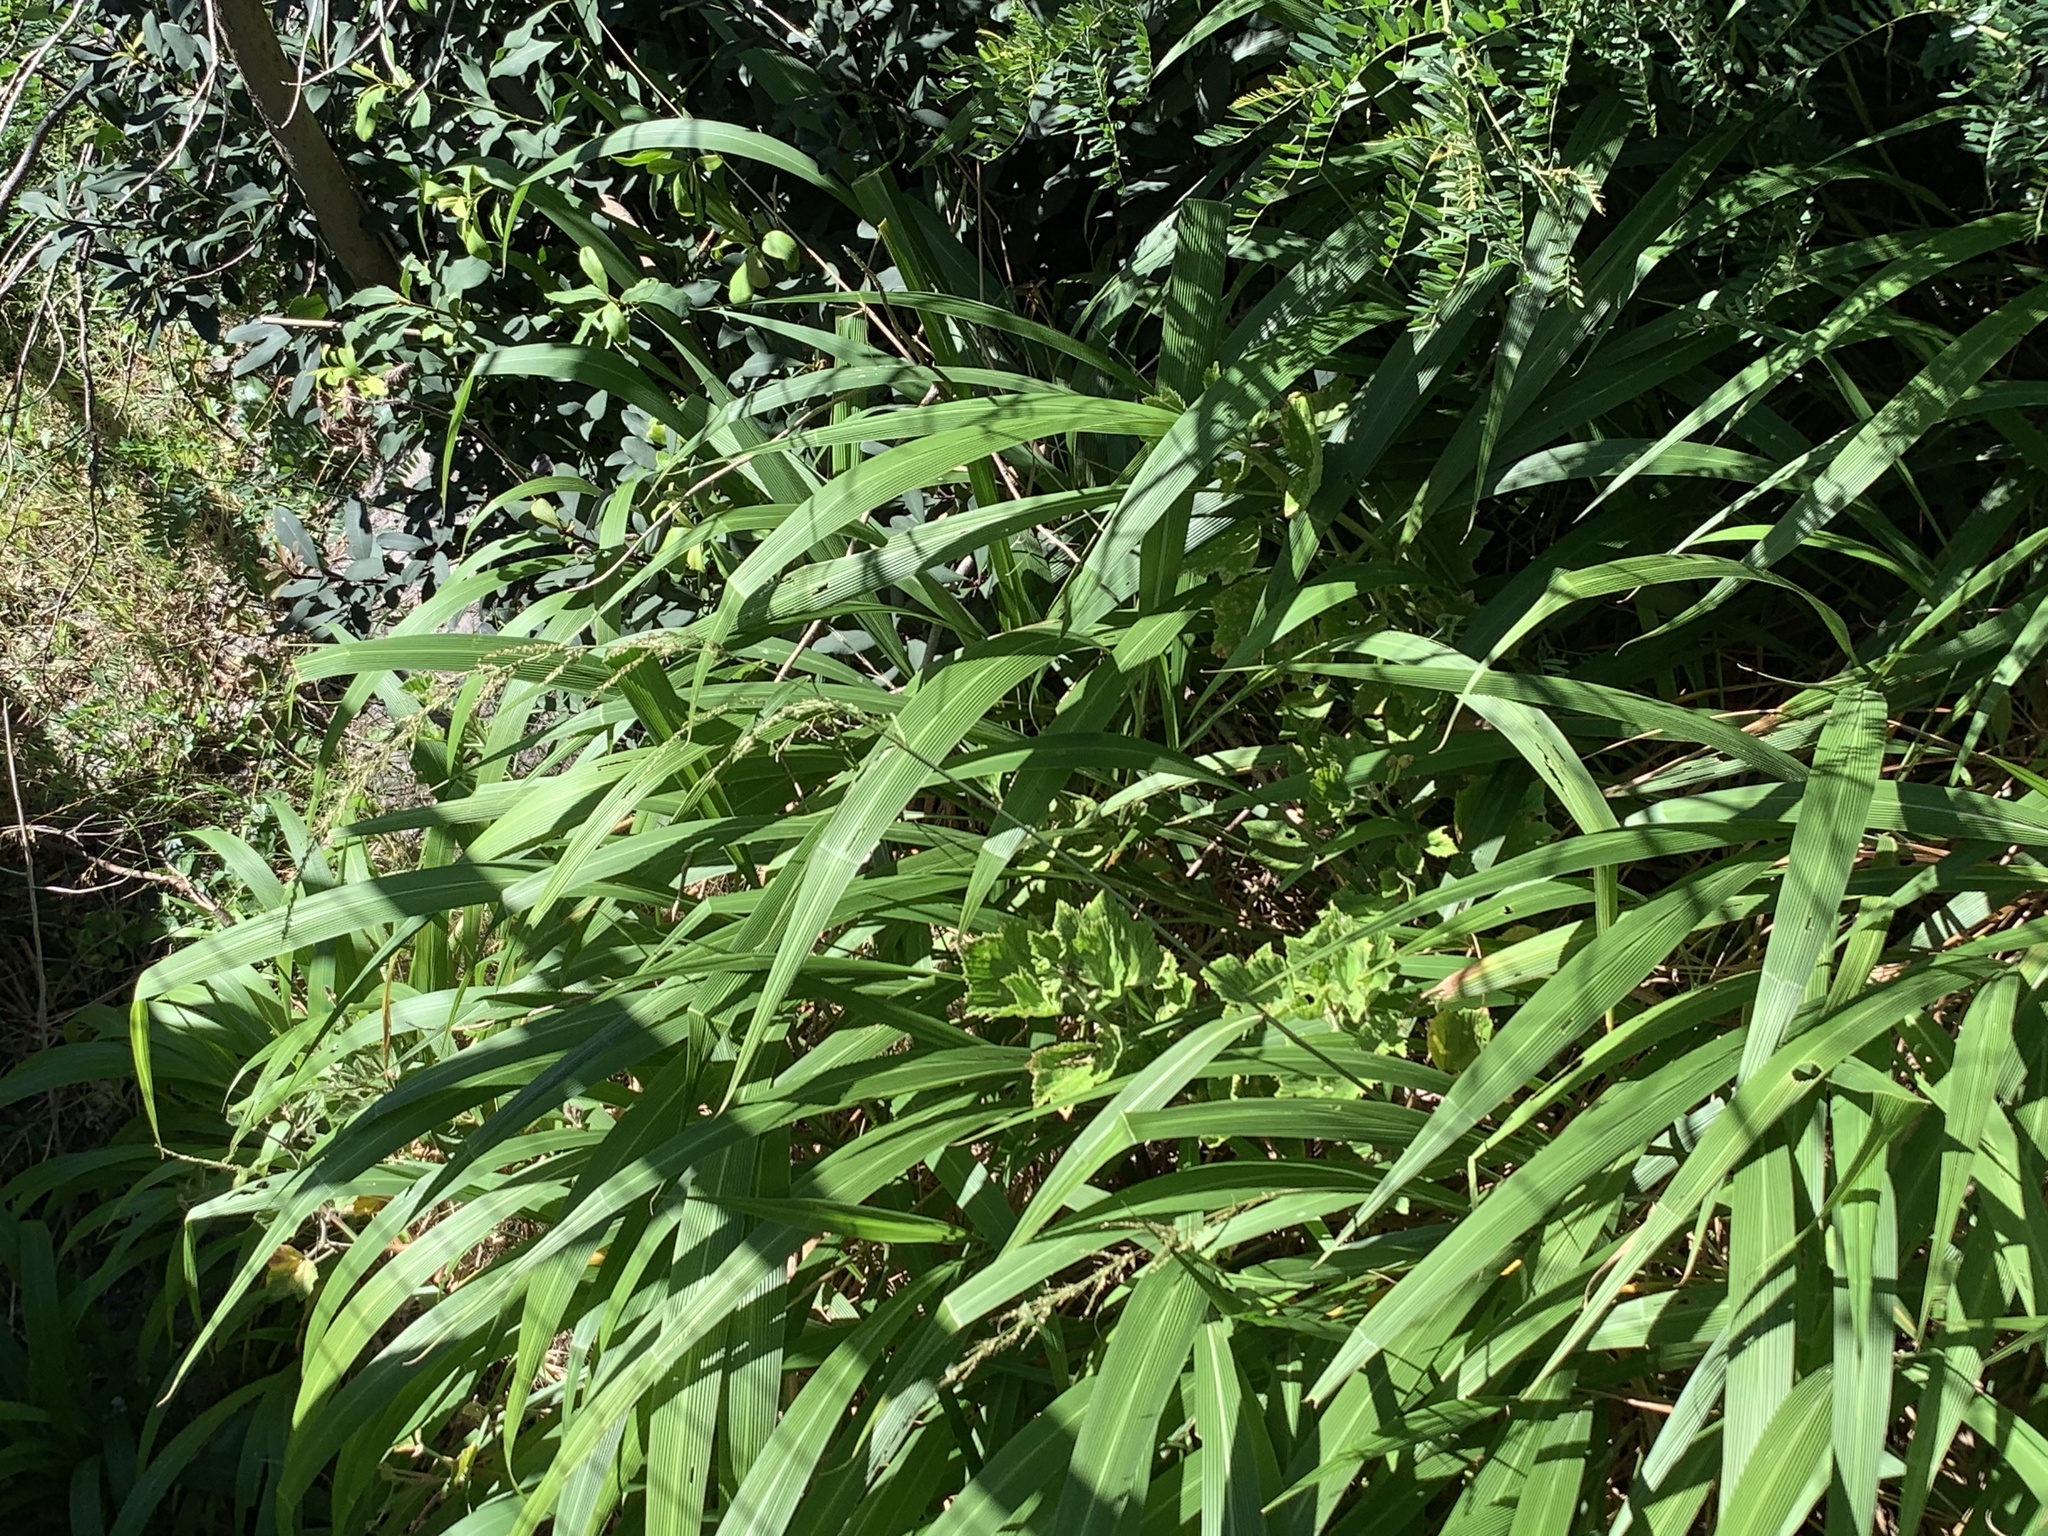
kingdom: Plantae
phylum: Tracheophyta
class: Liliopsida
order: Poales
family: Poaceae
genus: Setaria
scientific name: Setaria megaphylla
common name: Bigleaf bristlegrass
